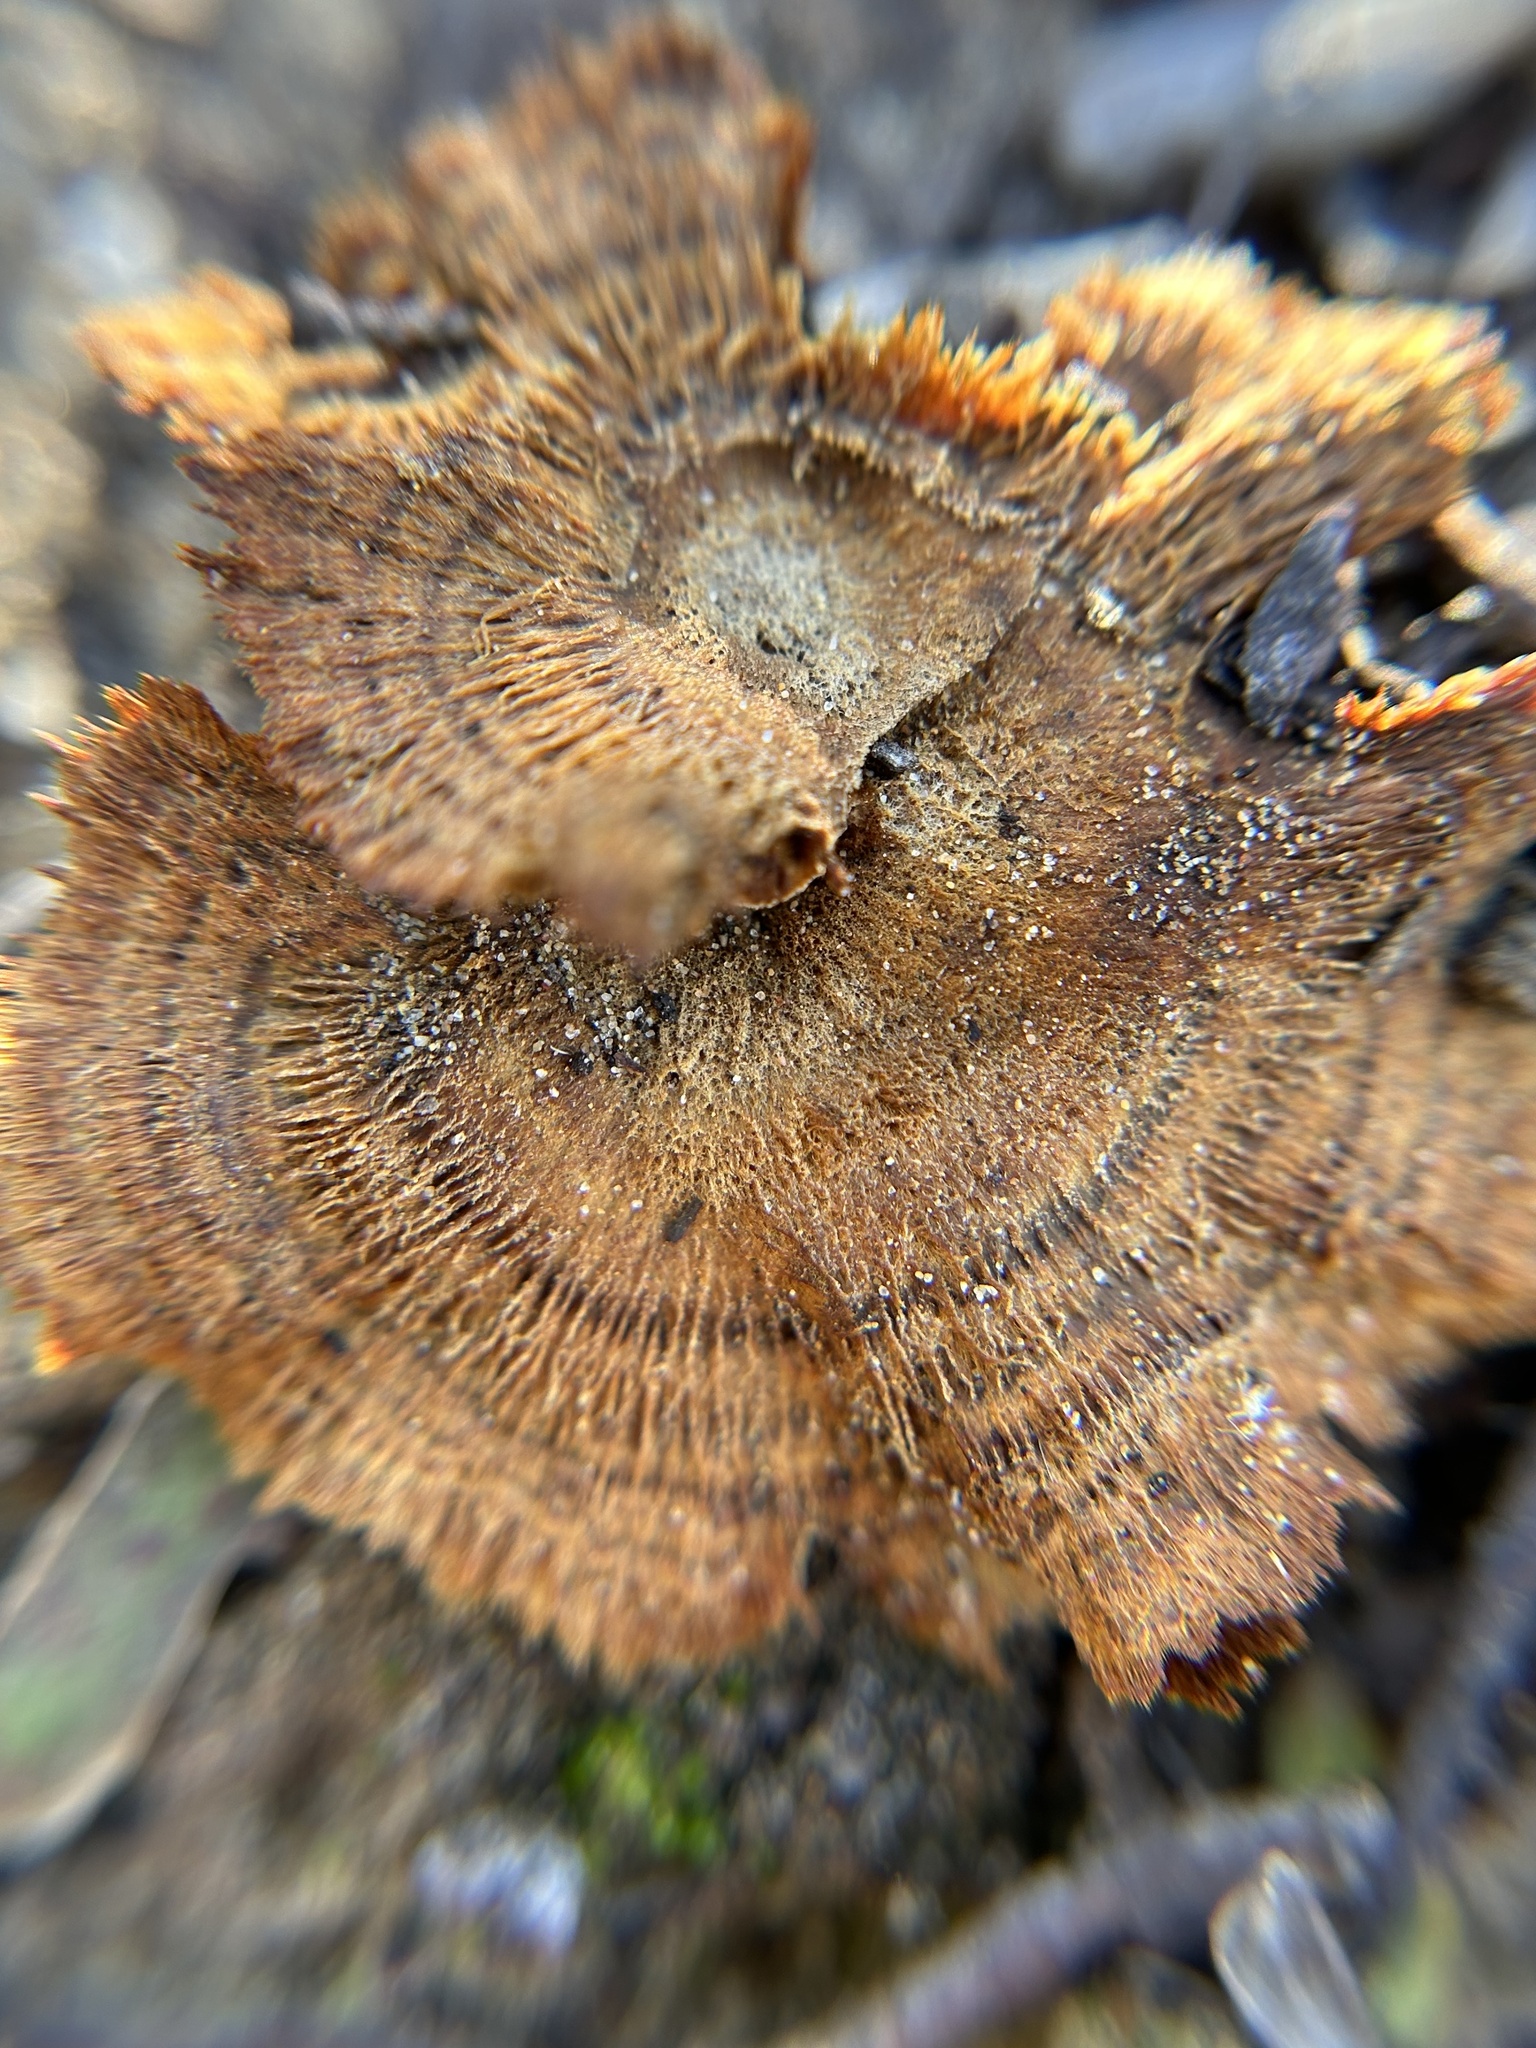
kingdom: Fungi
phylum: Basidiomycota
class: Agaricomycetes
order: Hymenochaetales
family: Hymenochaetaceae
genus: Coltricia
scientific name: Coltricia perennis
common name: Tiger's eye
